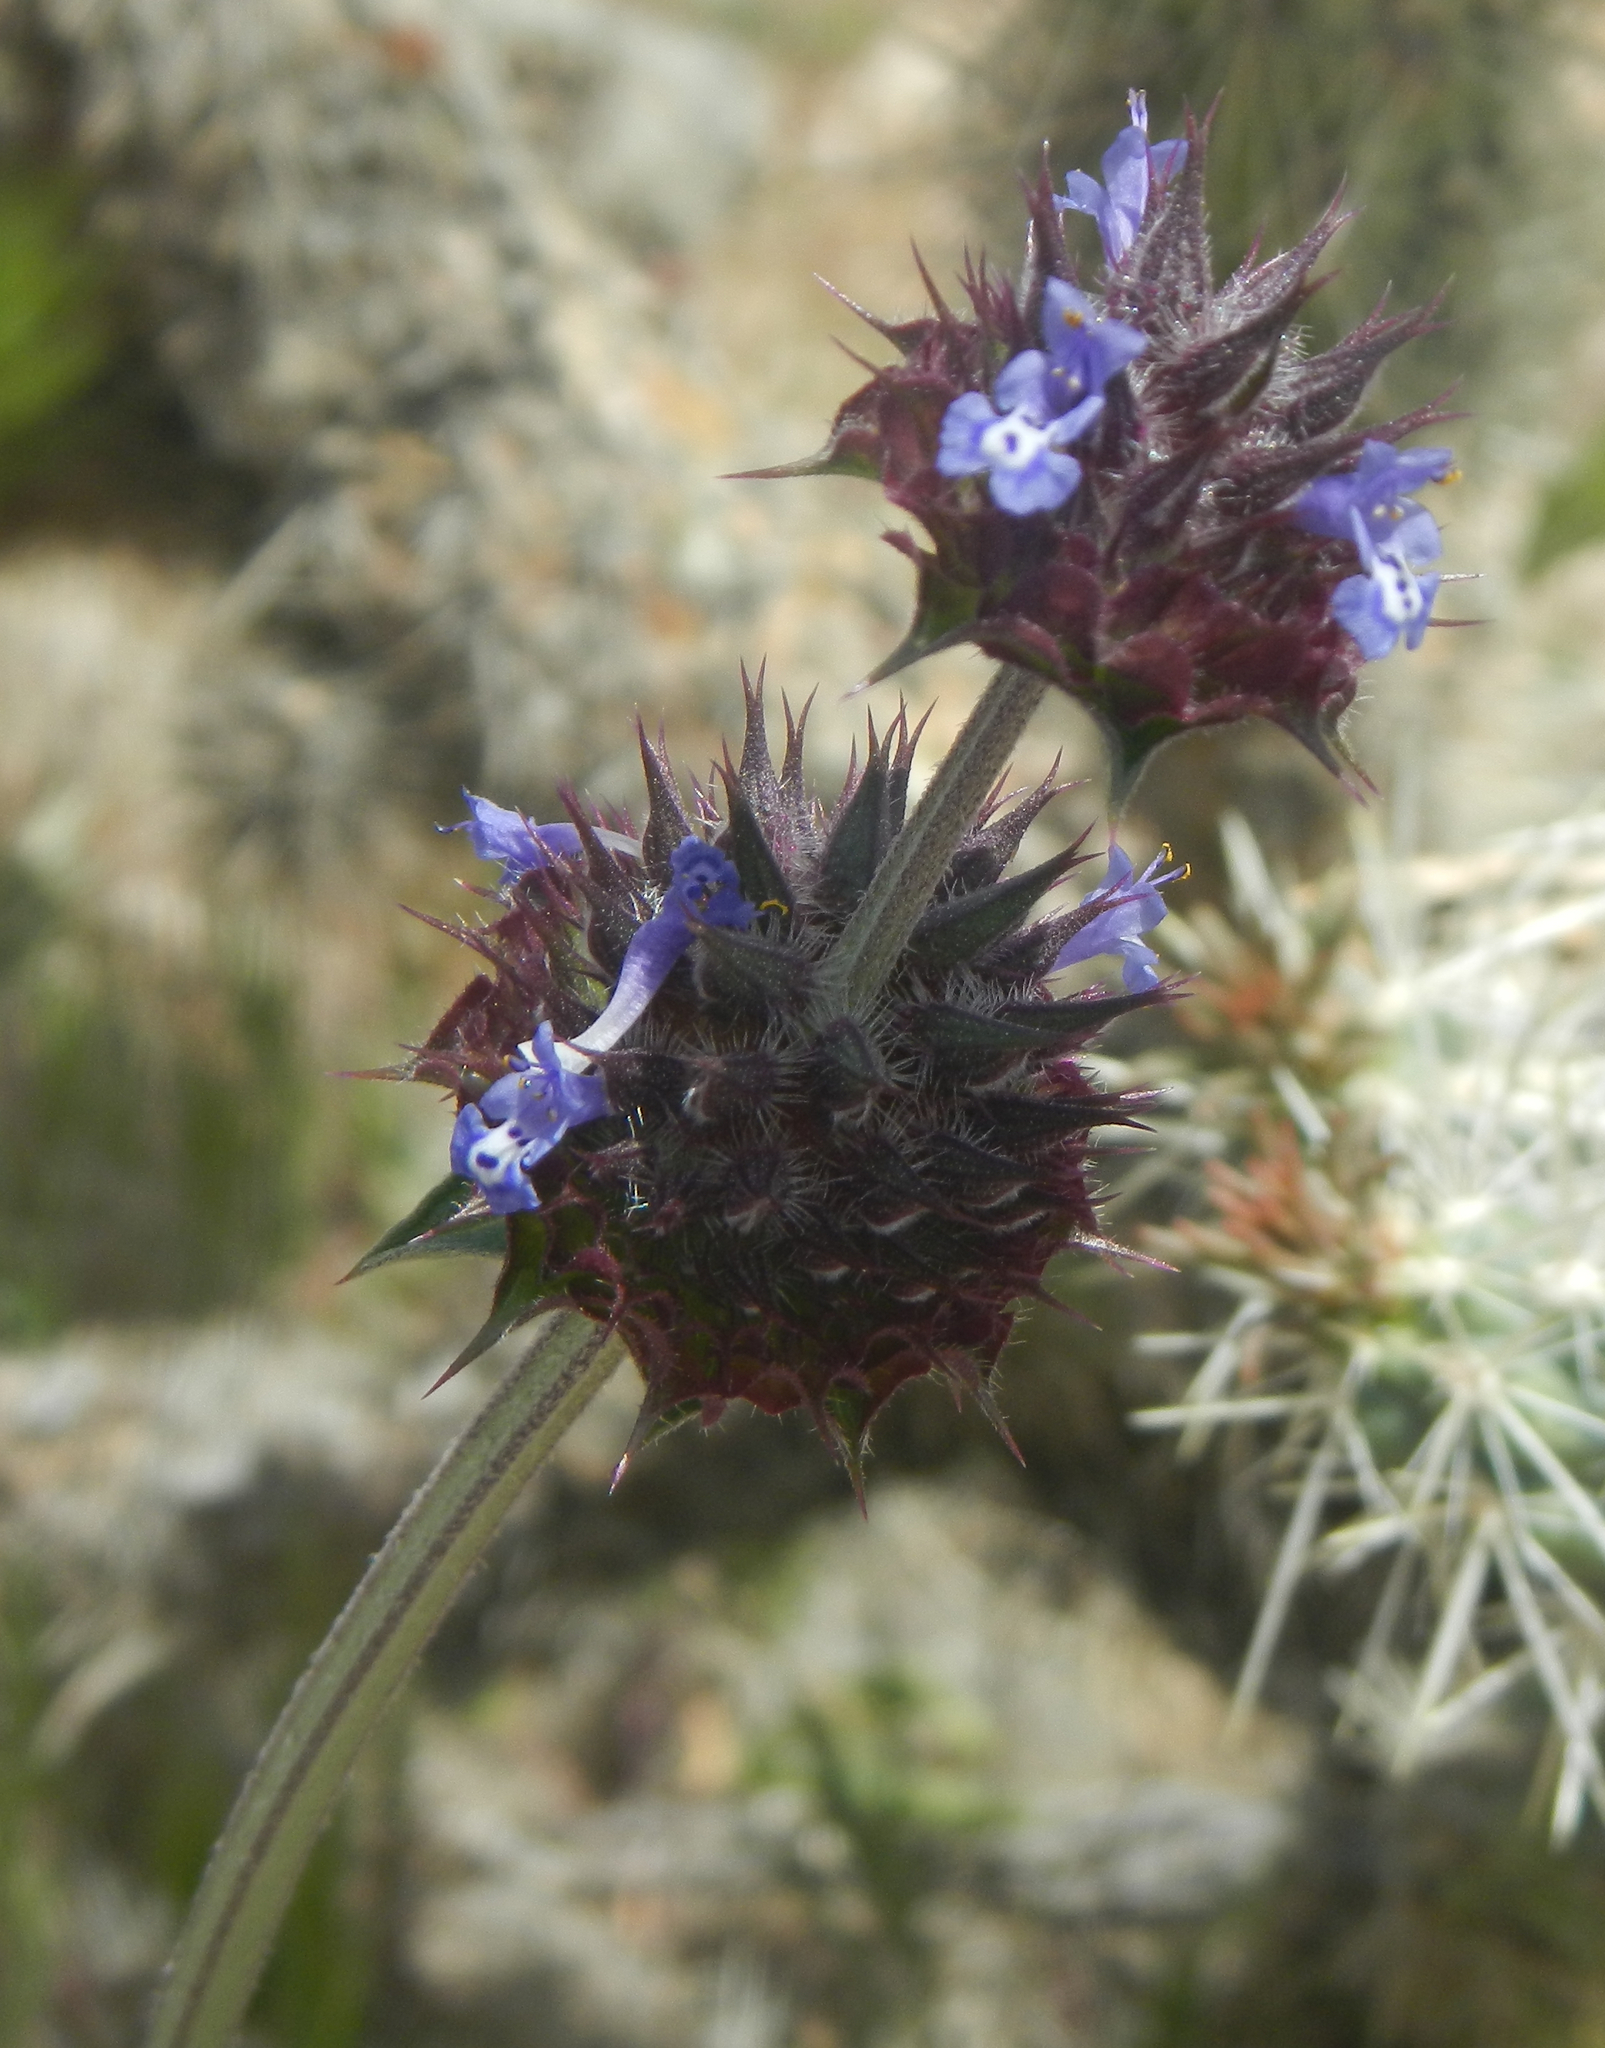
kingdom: Plantae
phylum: Tracheophyta
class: Magnoliopsida
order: Lamiales
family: Lamiaceae
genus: Salvia
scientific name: Salvia columbariae
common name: Chia
